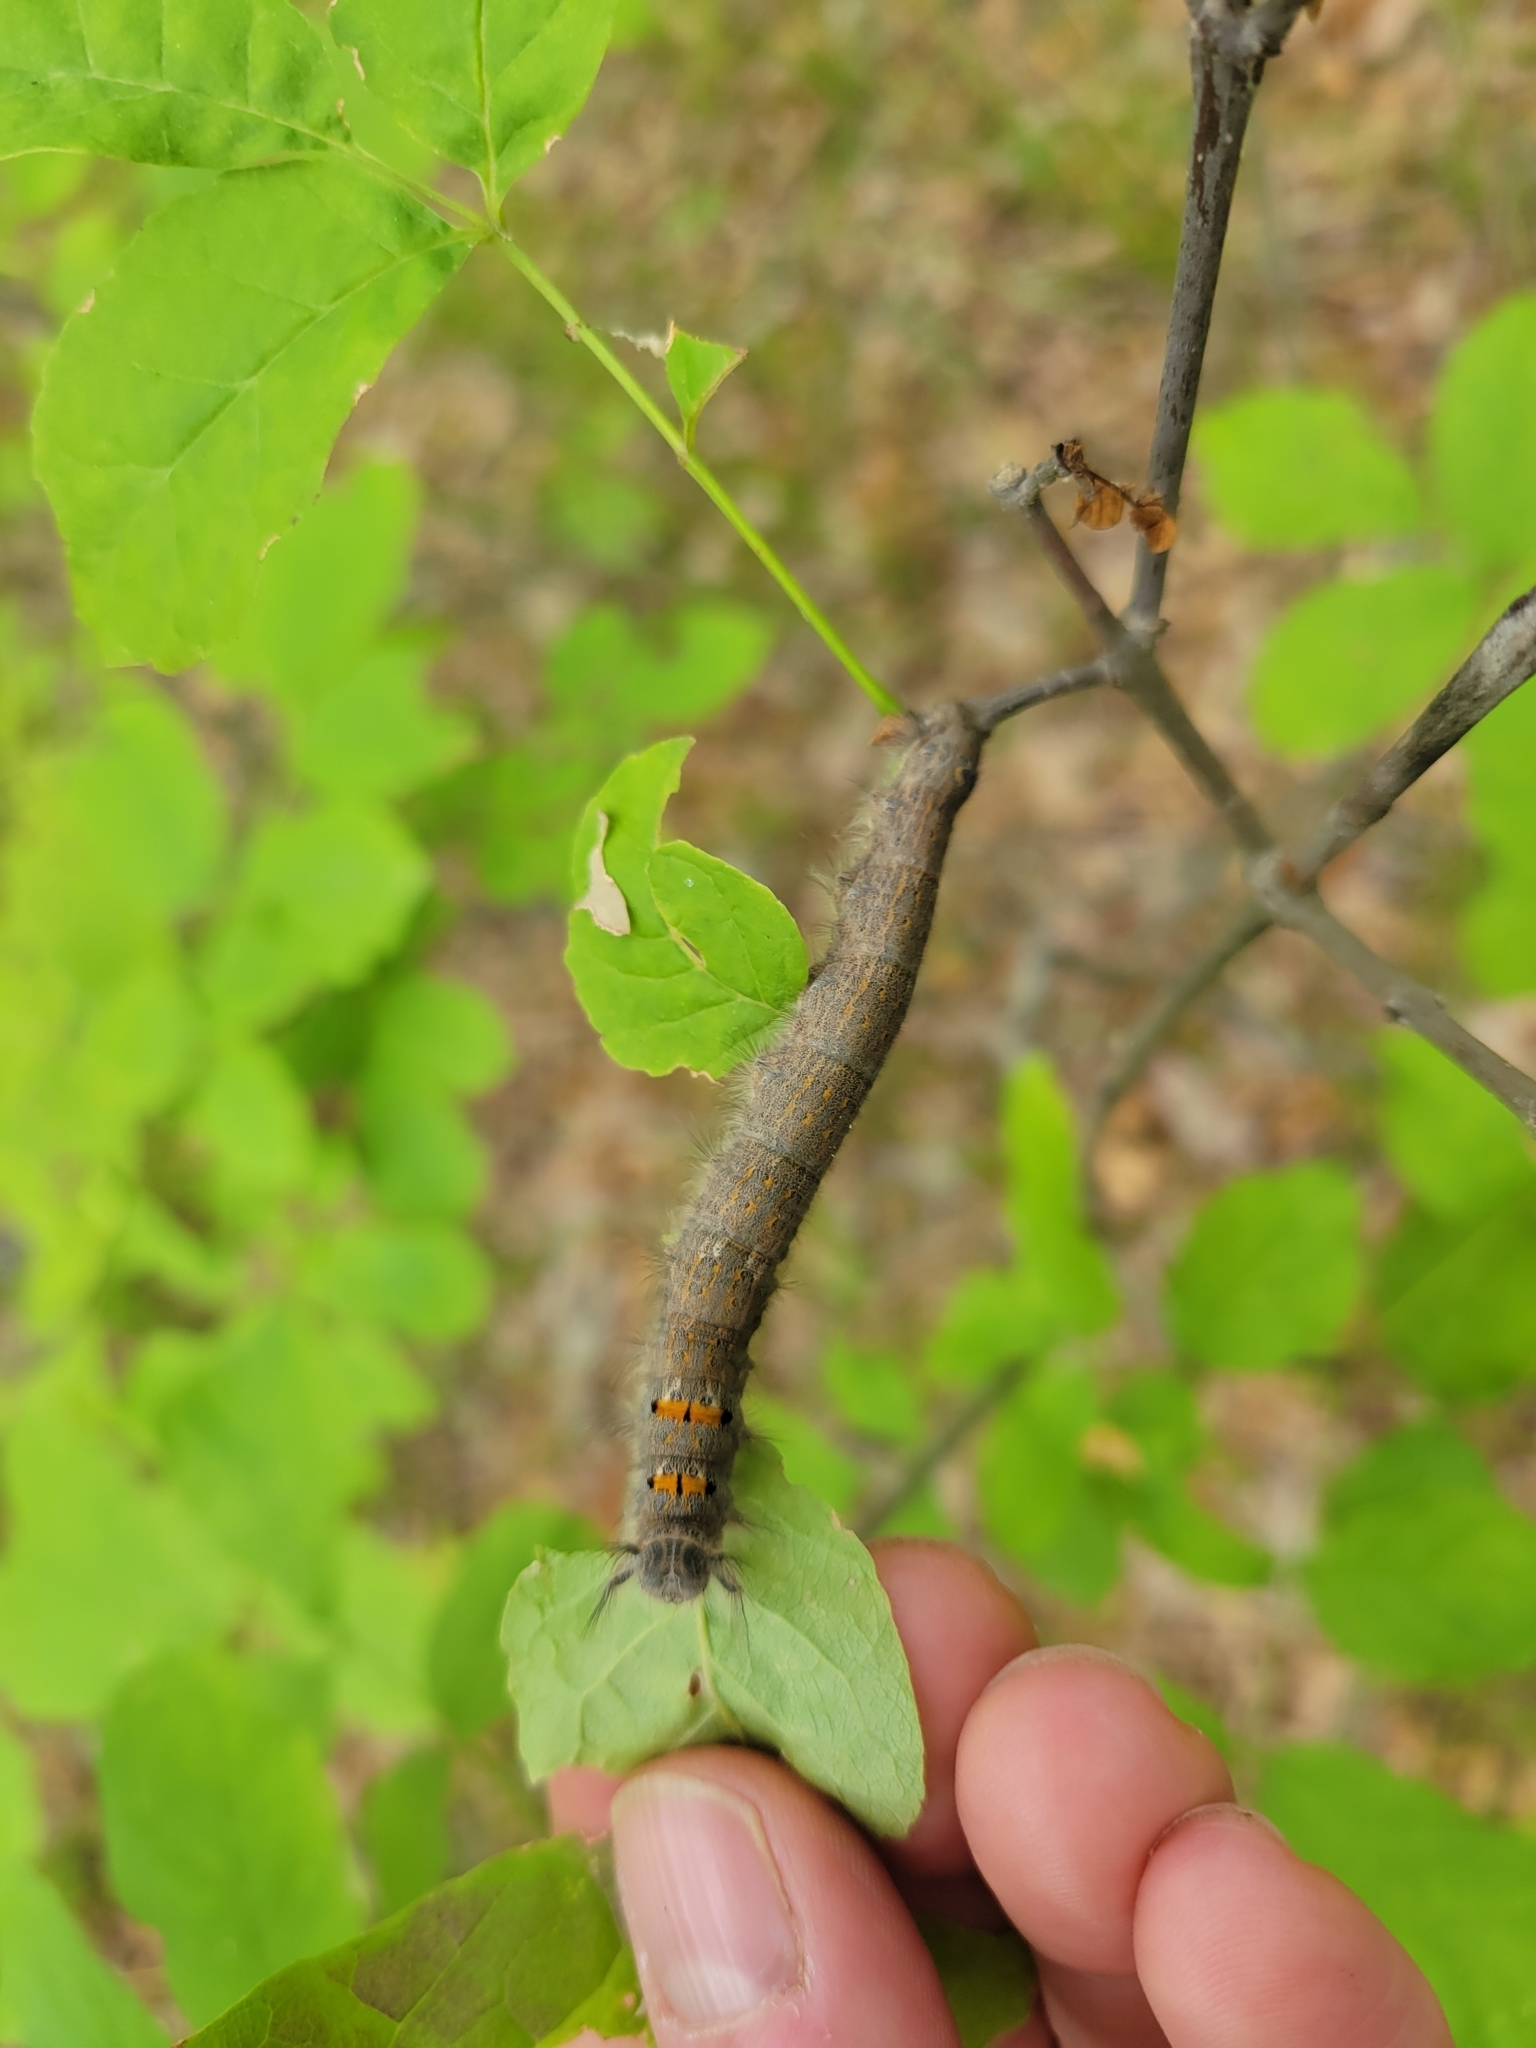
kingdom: Animalia
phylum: Arthropoda
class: Insecta
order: Lepidoptera
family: Lasiocampidae
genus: Phyllodesma
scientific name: Phyllodesma americana
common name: American lappet moth
